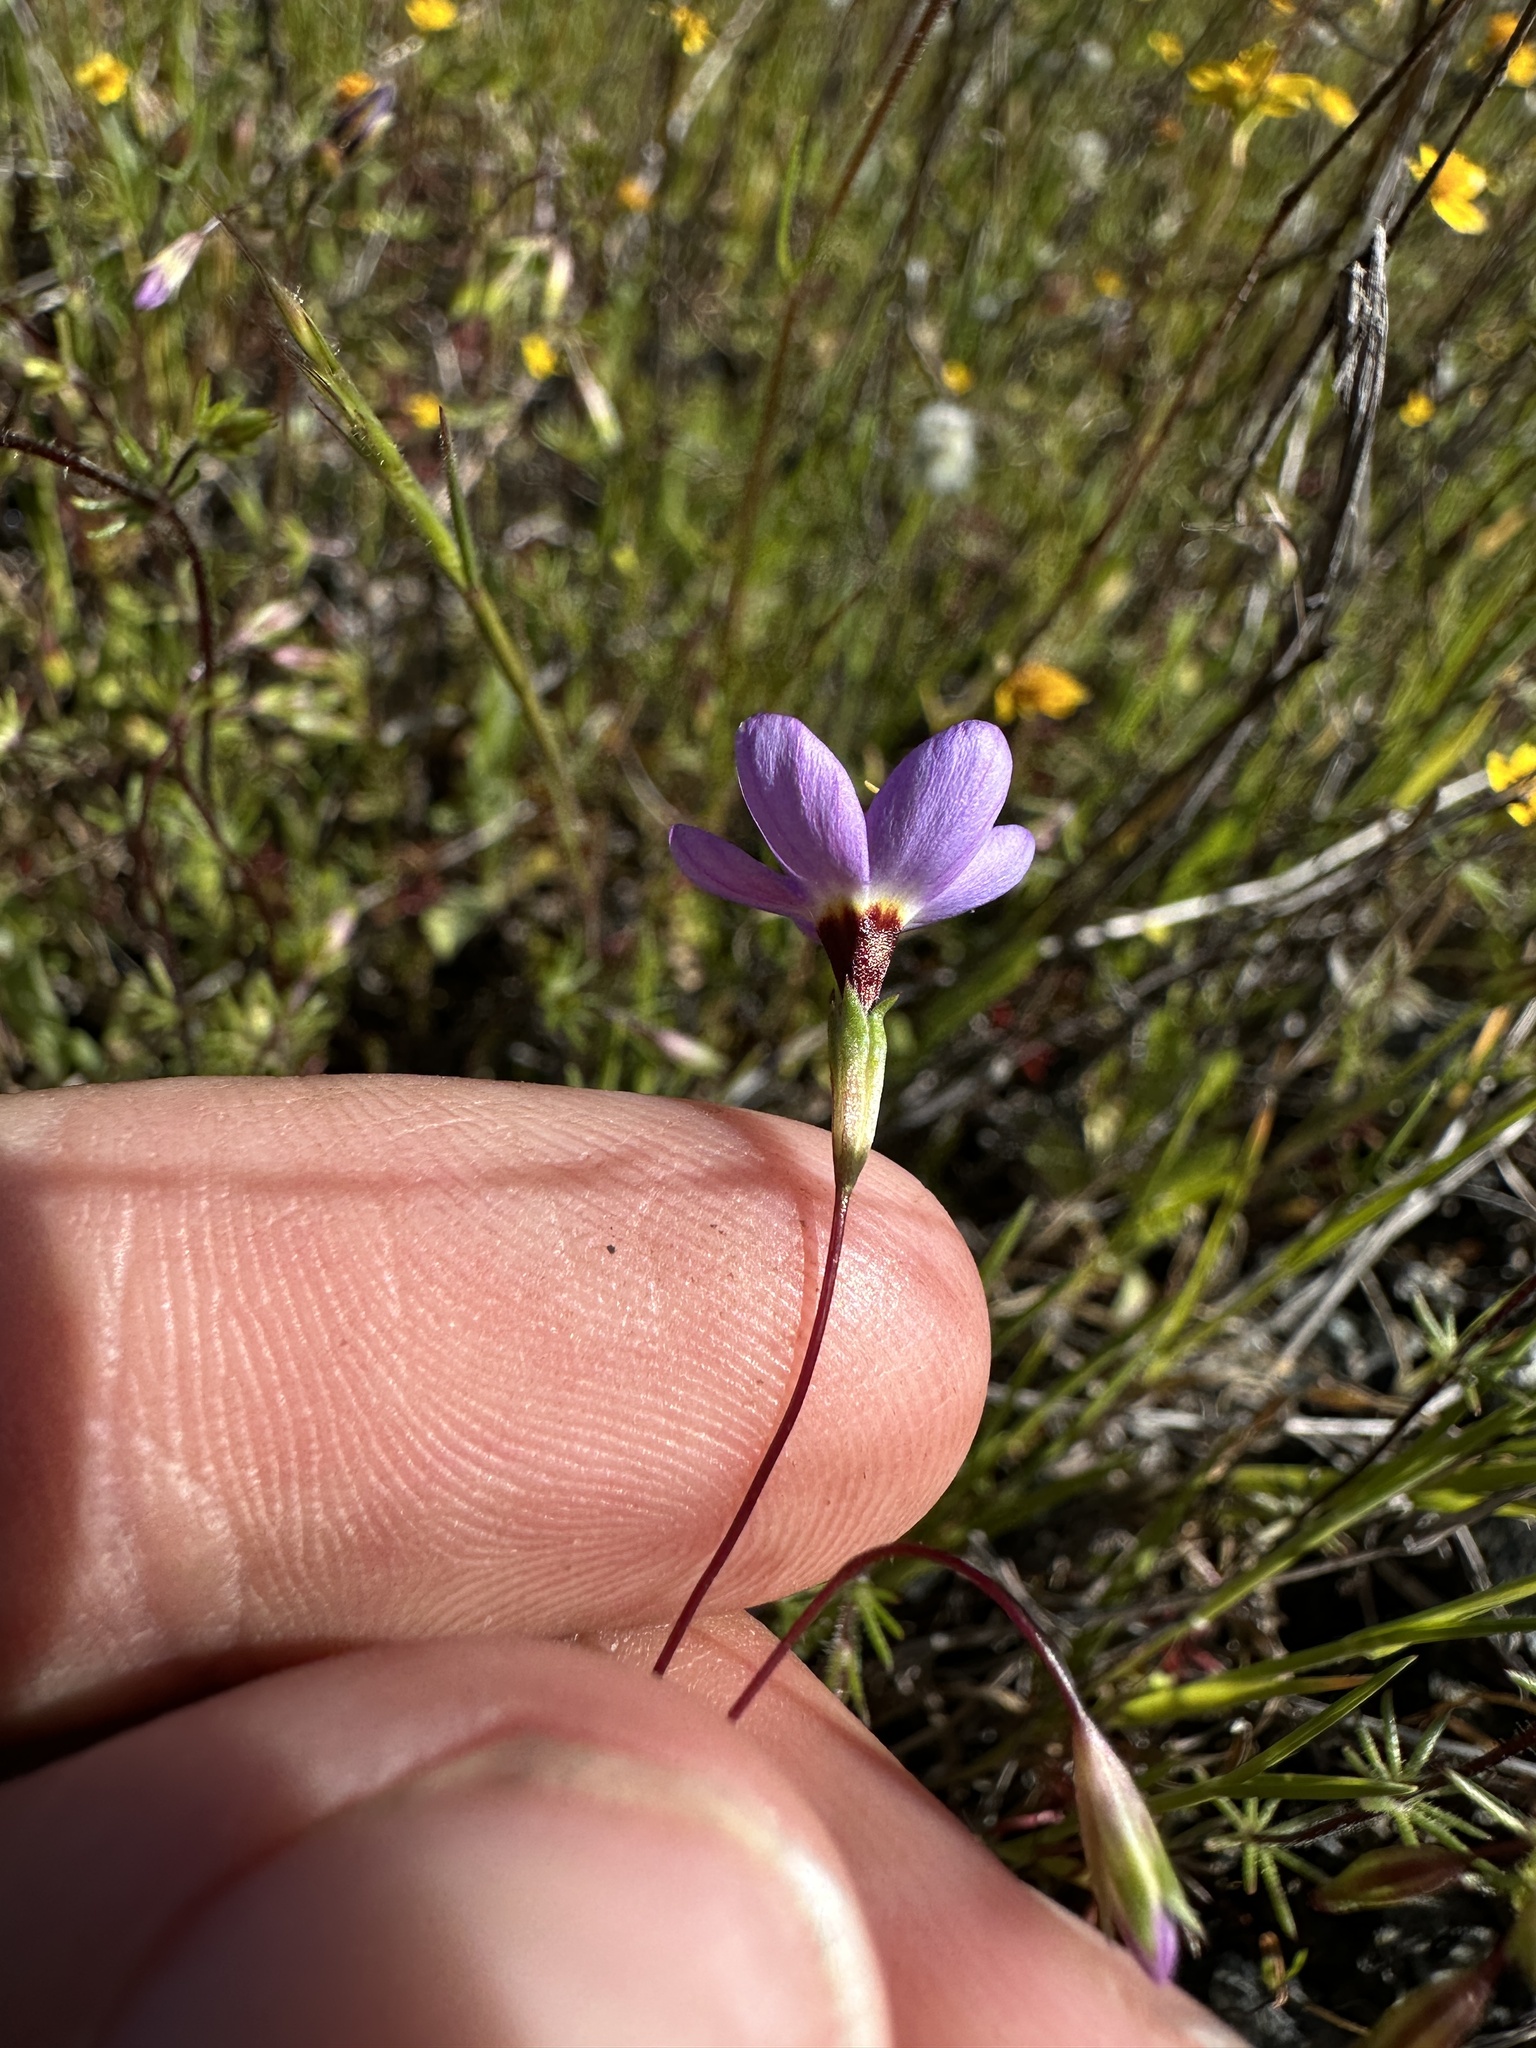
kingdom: Plantae
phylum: Tracheophyta
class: Magnoliopsida
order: Ericales
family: Polemoniaceae
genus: Leptosiphon
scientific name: Leptosiphon ambiguus
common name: Serpentine linanthus
